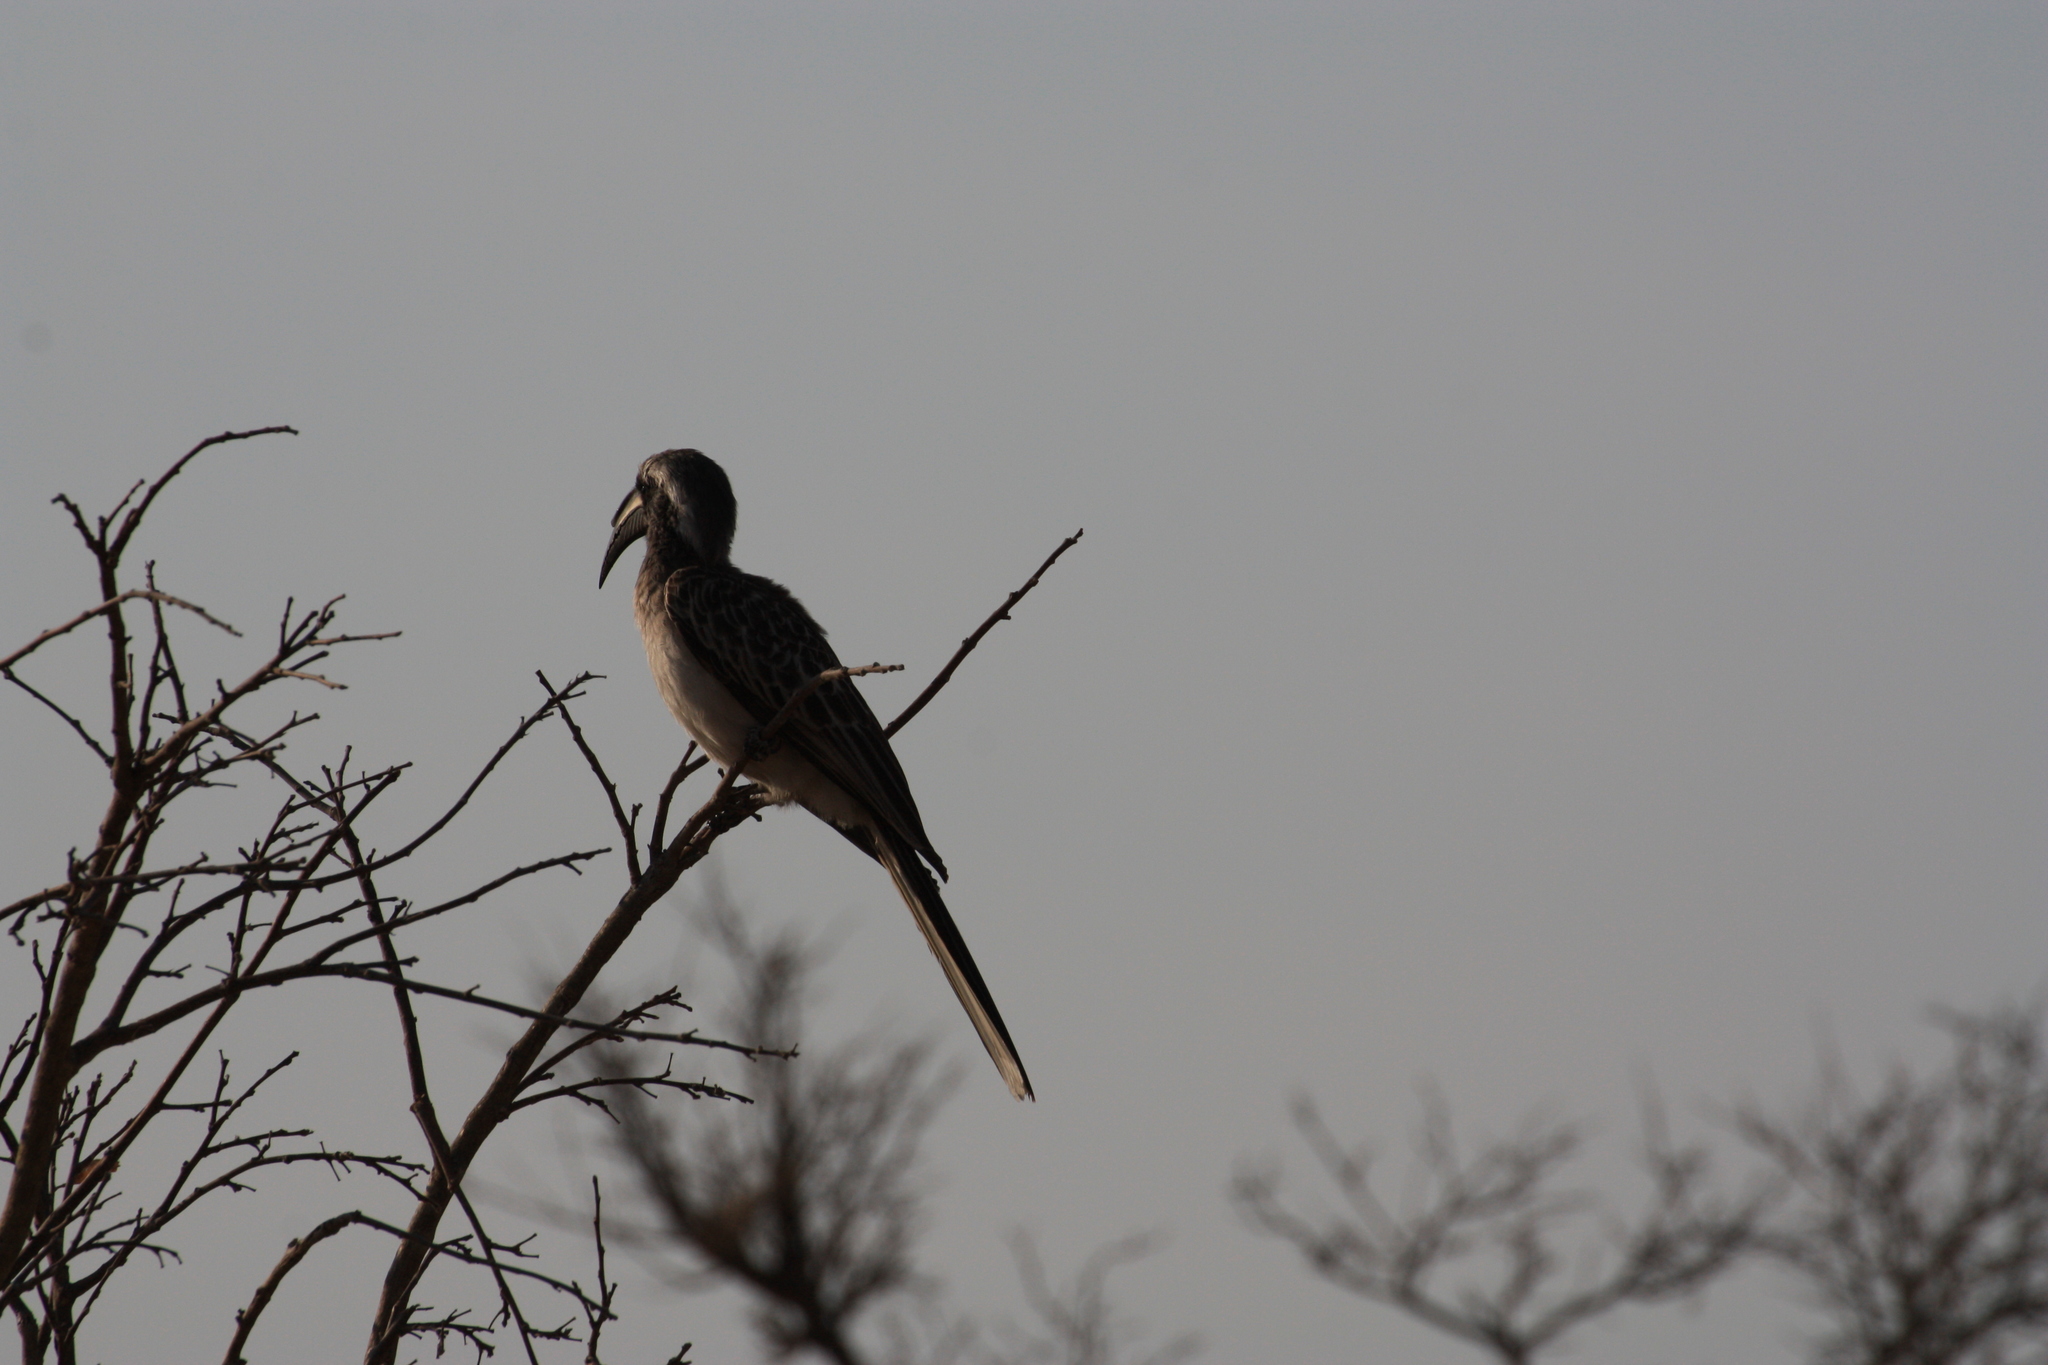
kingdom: Animalia
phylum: Chordata
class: Aves
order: Bucerotiformes
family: Bucerotidae
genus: Lophoceros
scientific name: Lophoceros nasutus
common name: African grey hornbill
